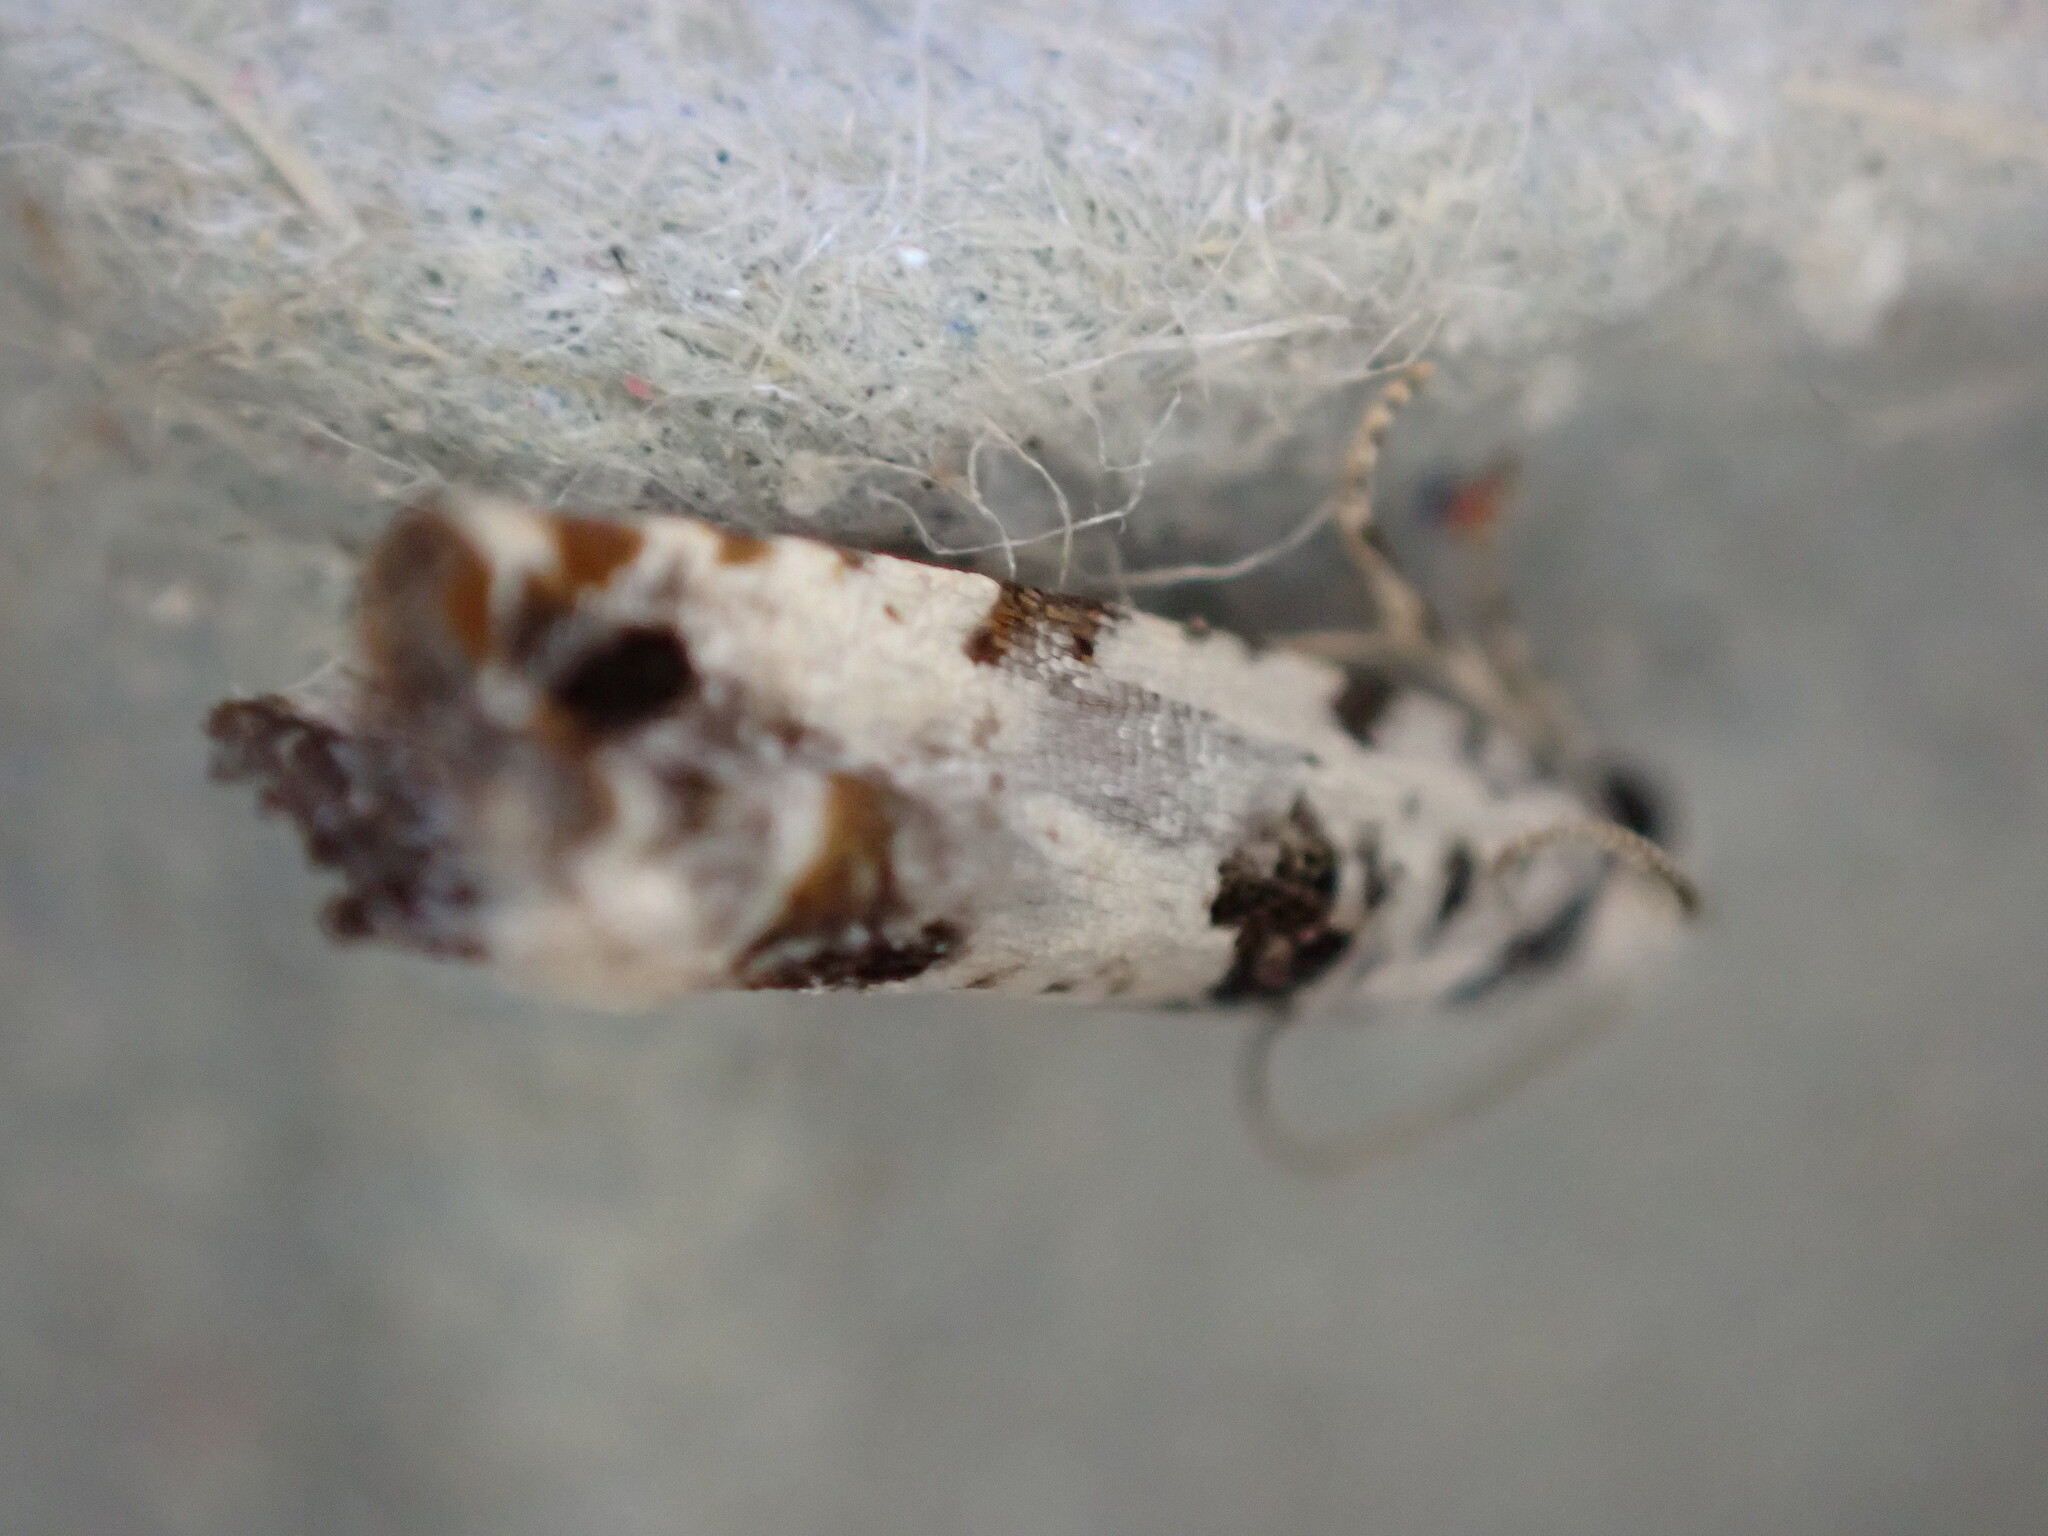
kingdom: Animalia
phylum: Arthropoda
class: Insecta
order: Lepidoptera
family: Tortricidae
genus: Eucosma
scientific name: Eucosma campoliliana
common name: Marbled bell
